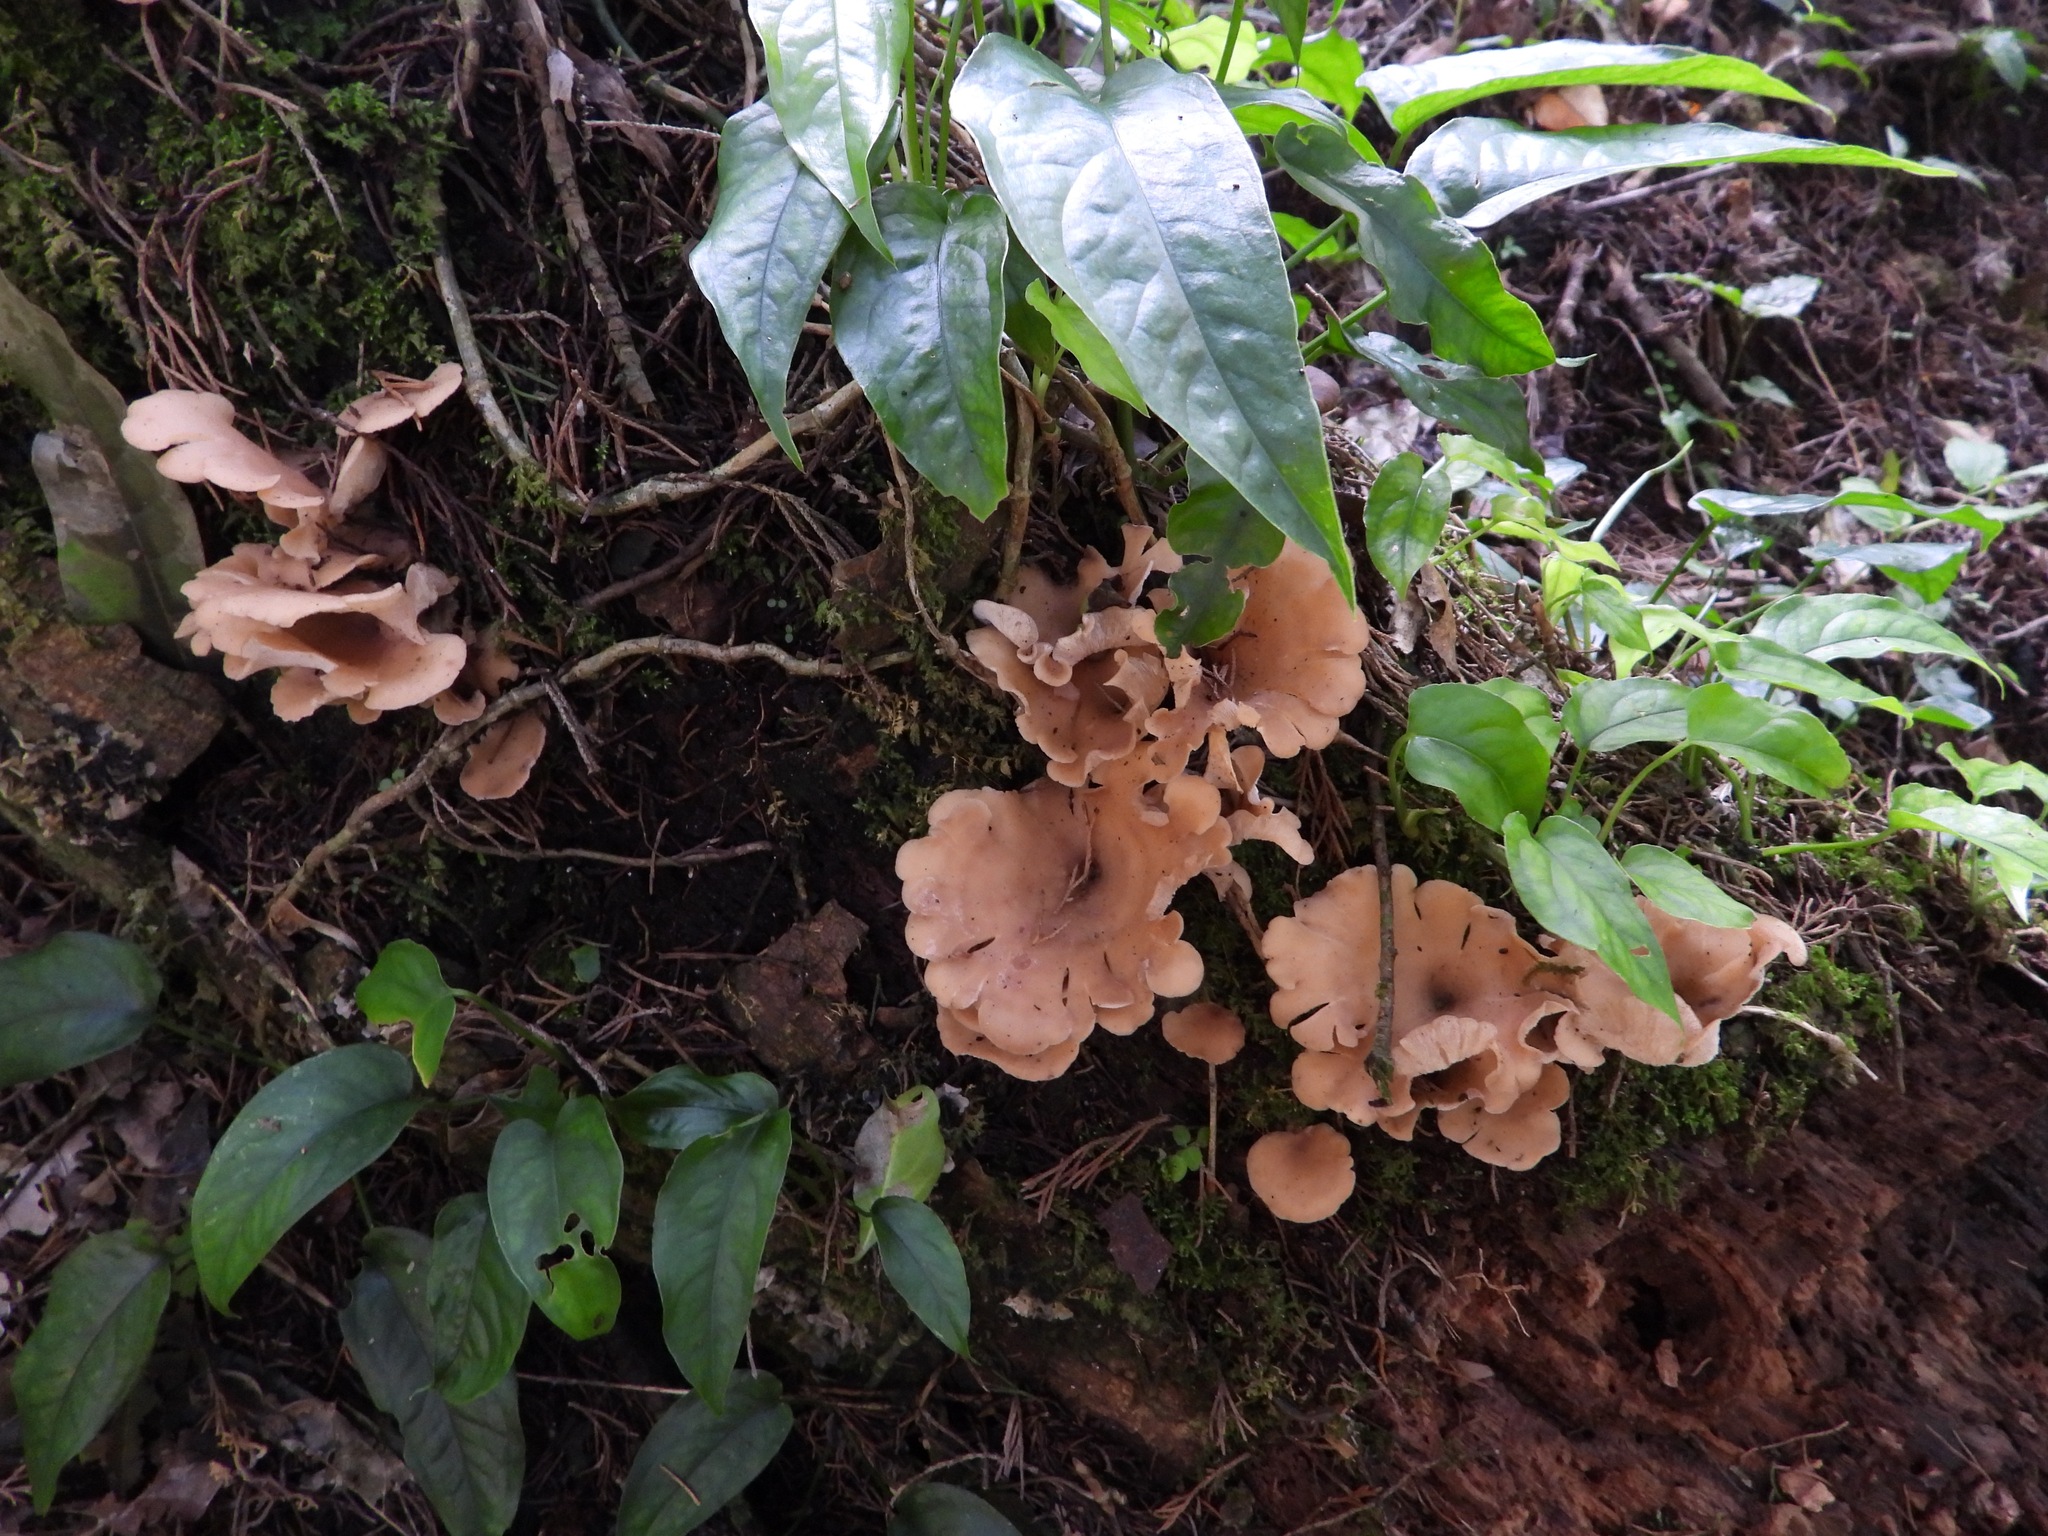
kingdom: Fungi
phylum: Basidiomycota
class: Agaricomycetes
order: Agaricales
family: Marasmiaceae
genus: Trogia
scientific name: Trogia cantharelloides
